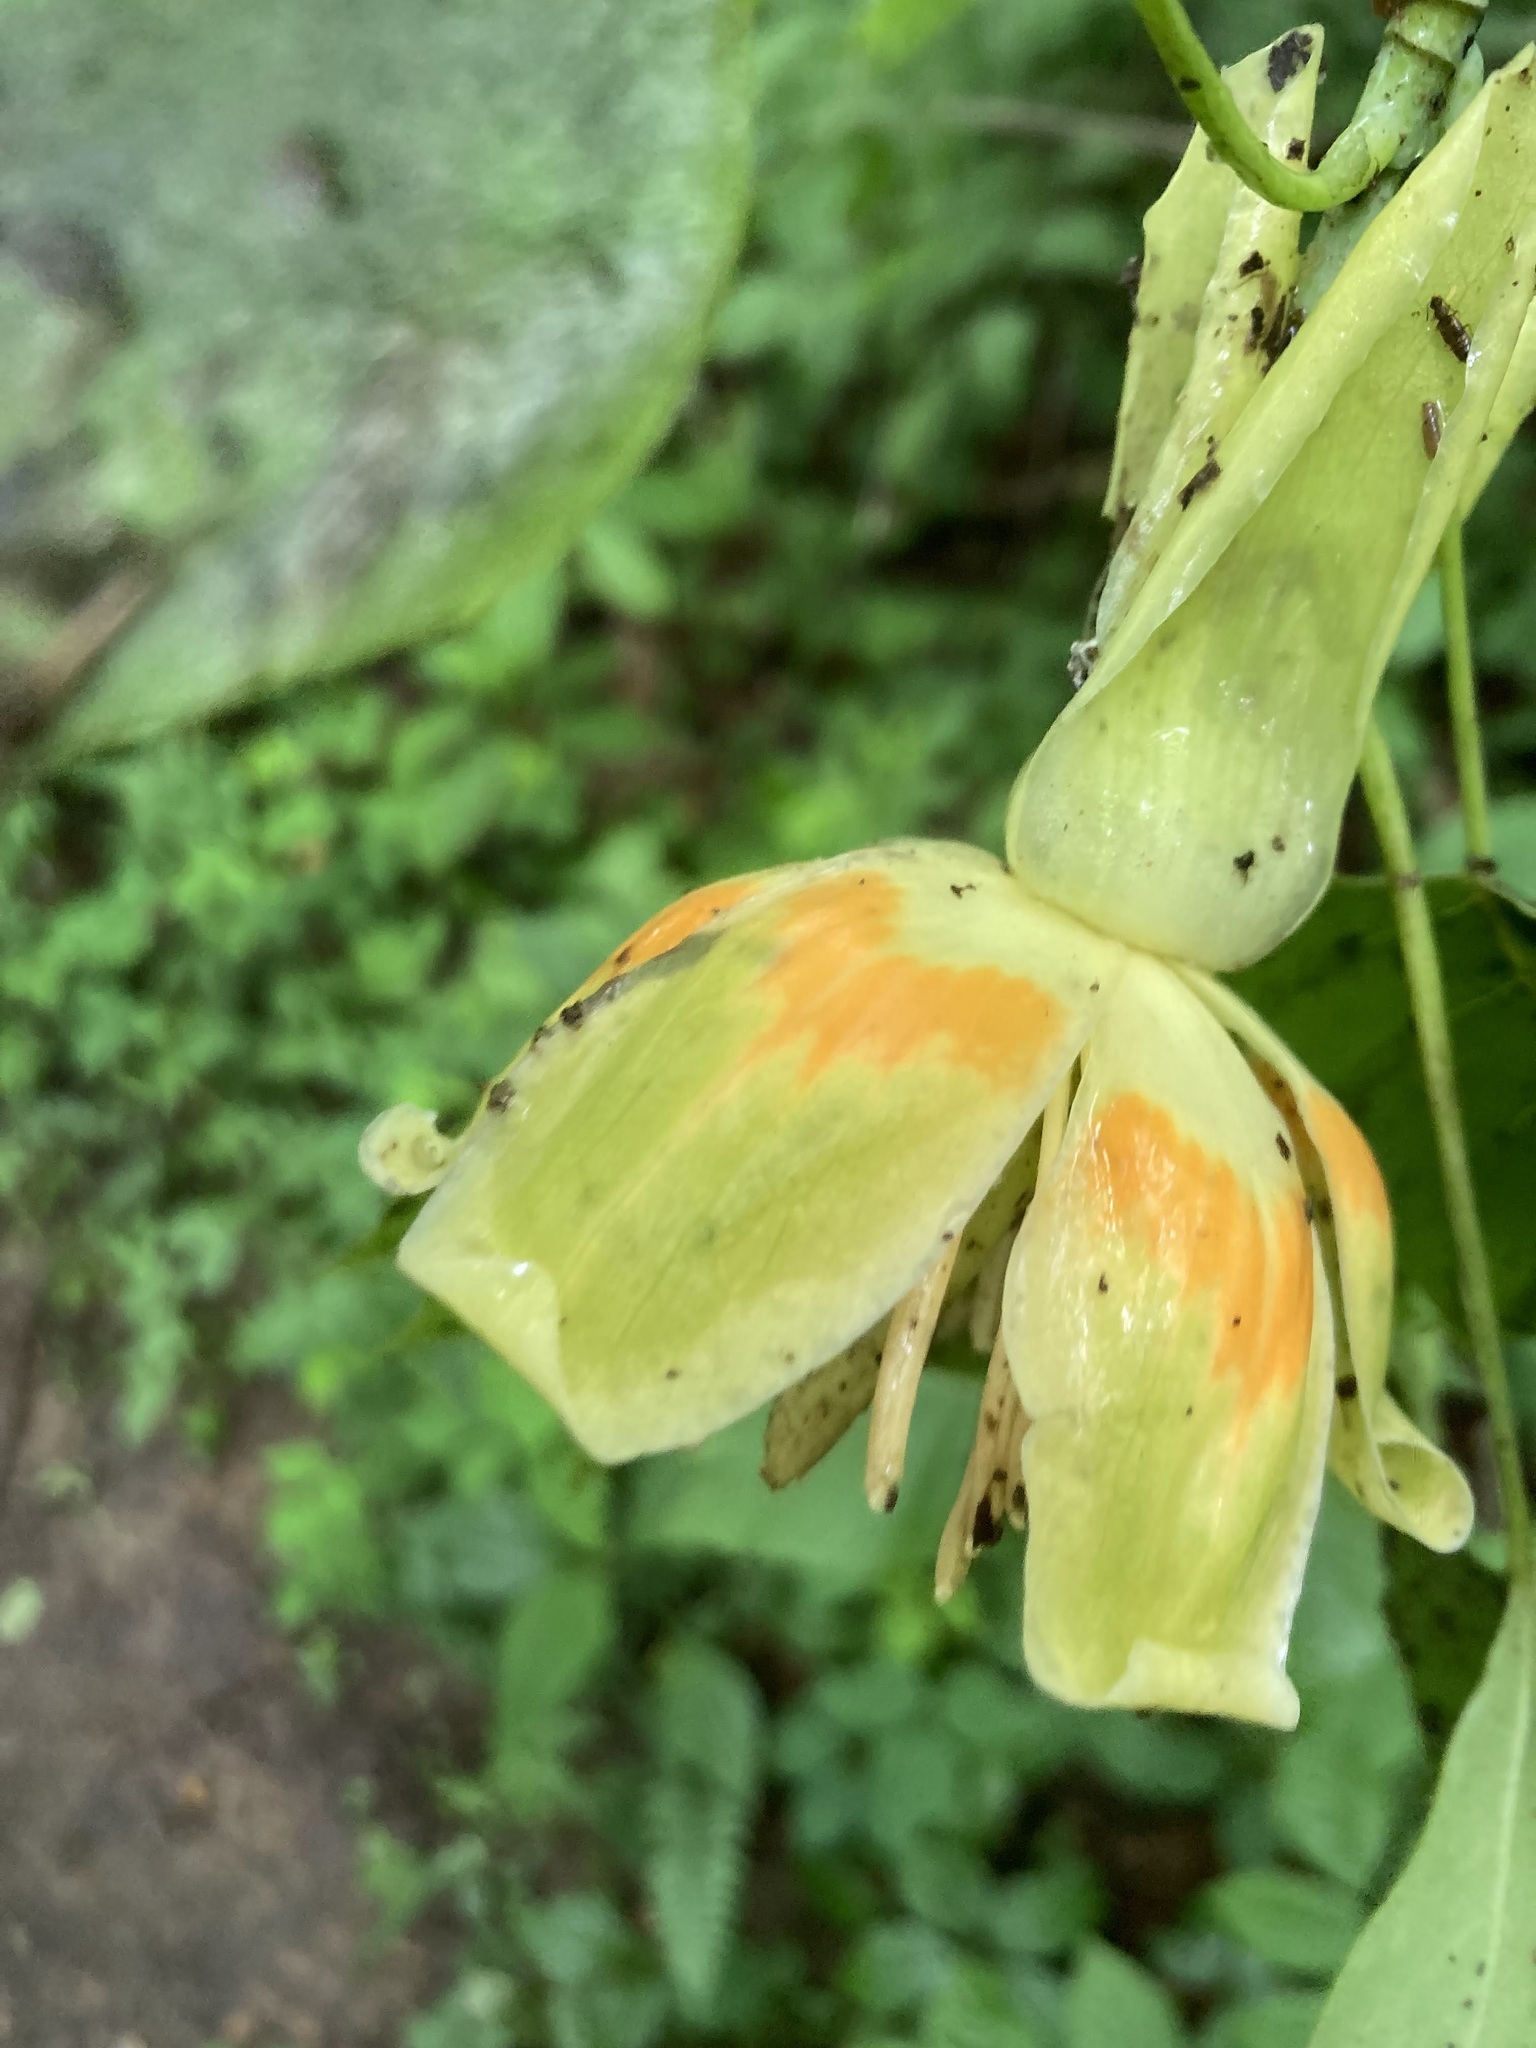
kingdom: Plantae
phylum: Tracheophyta
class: Magnoliopsida
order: Magnoliales
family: Magnoliaceae
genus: Liriodendron
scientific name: Liriodendron tulipifera
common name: Tulip tree
